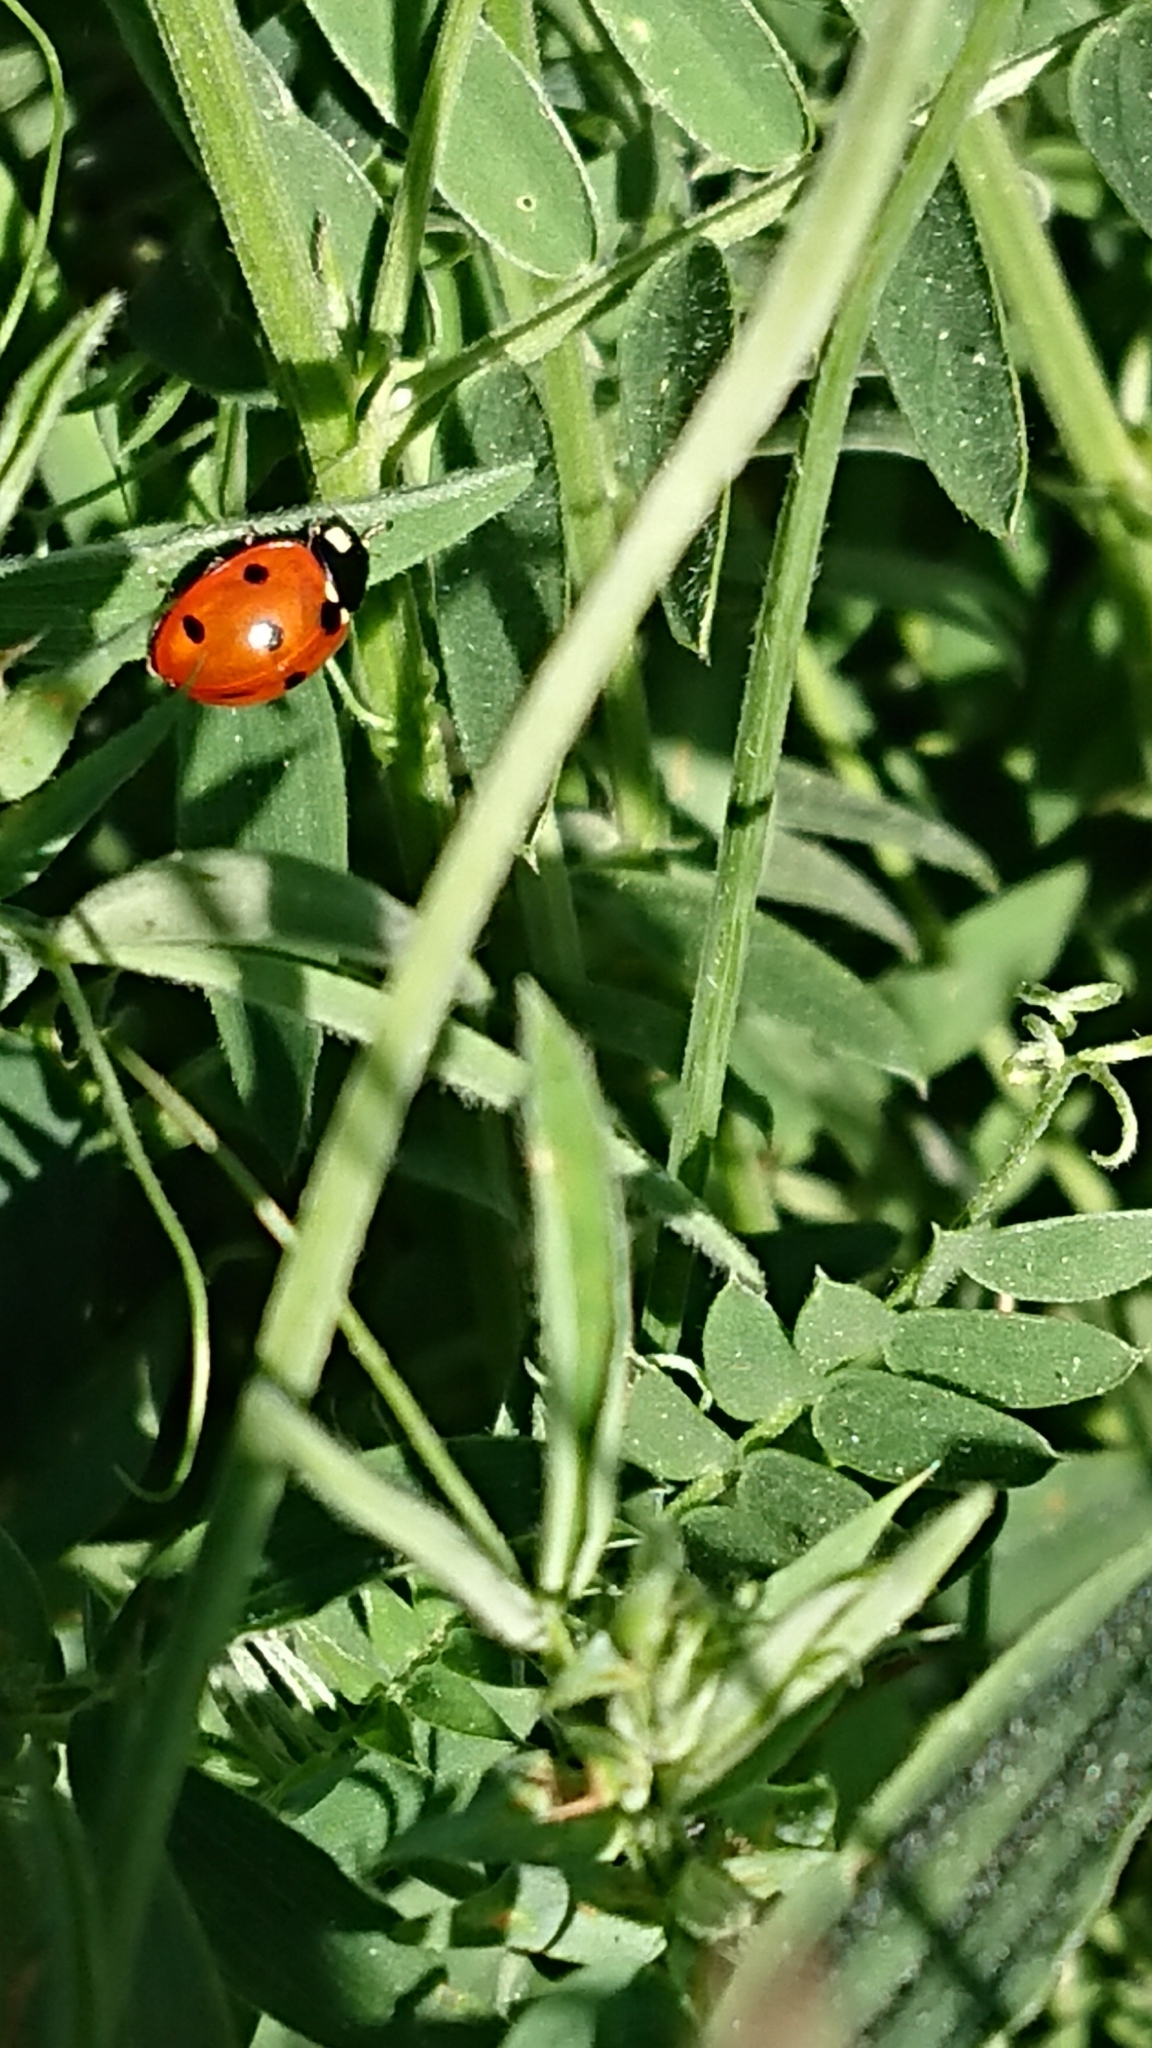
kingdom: Animalia
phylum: Arthropoda
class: Insecta
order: Coleoptera
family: Coccinellidae
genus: Coccinella
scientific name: Coccinella septempunctata
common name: Sevenspotted lady beetle
